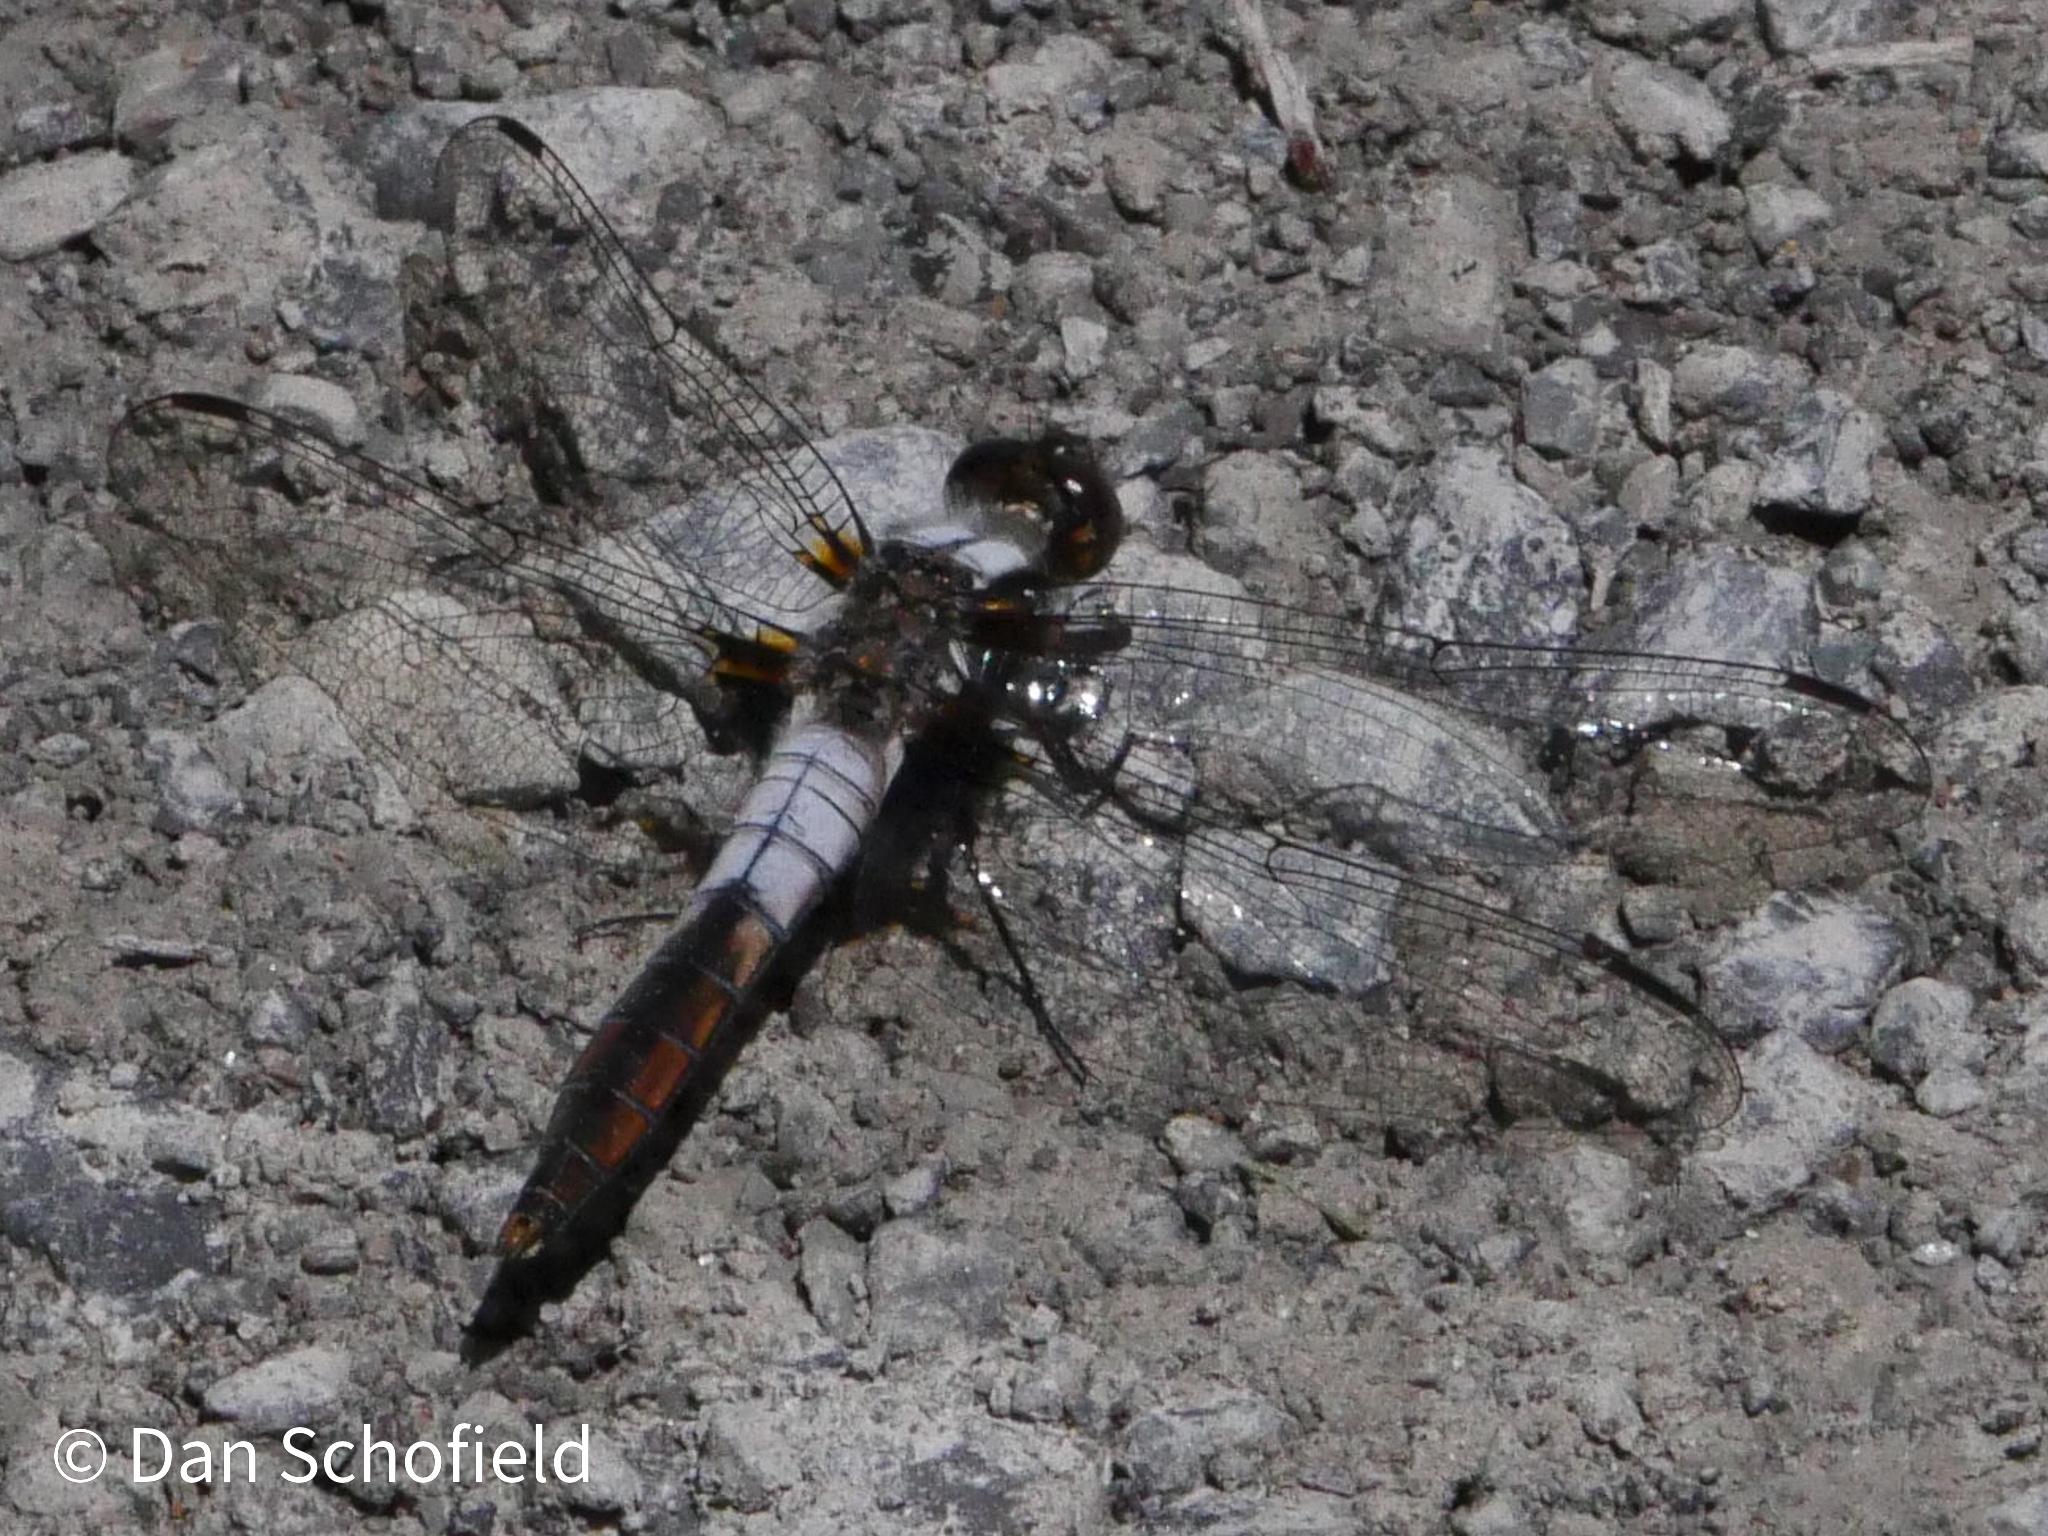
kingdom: Animalia
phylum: Arthropoda
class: Insecta
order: Odonata
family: Libellulidae
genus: Ladona
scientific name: Ladona julia
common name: Chalk-fronted corporal
